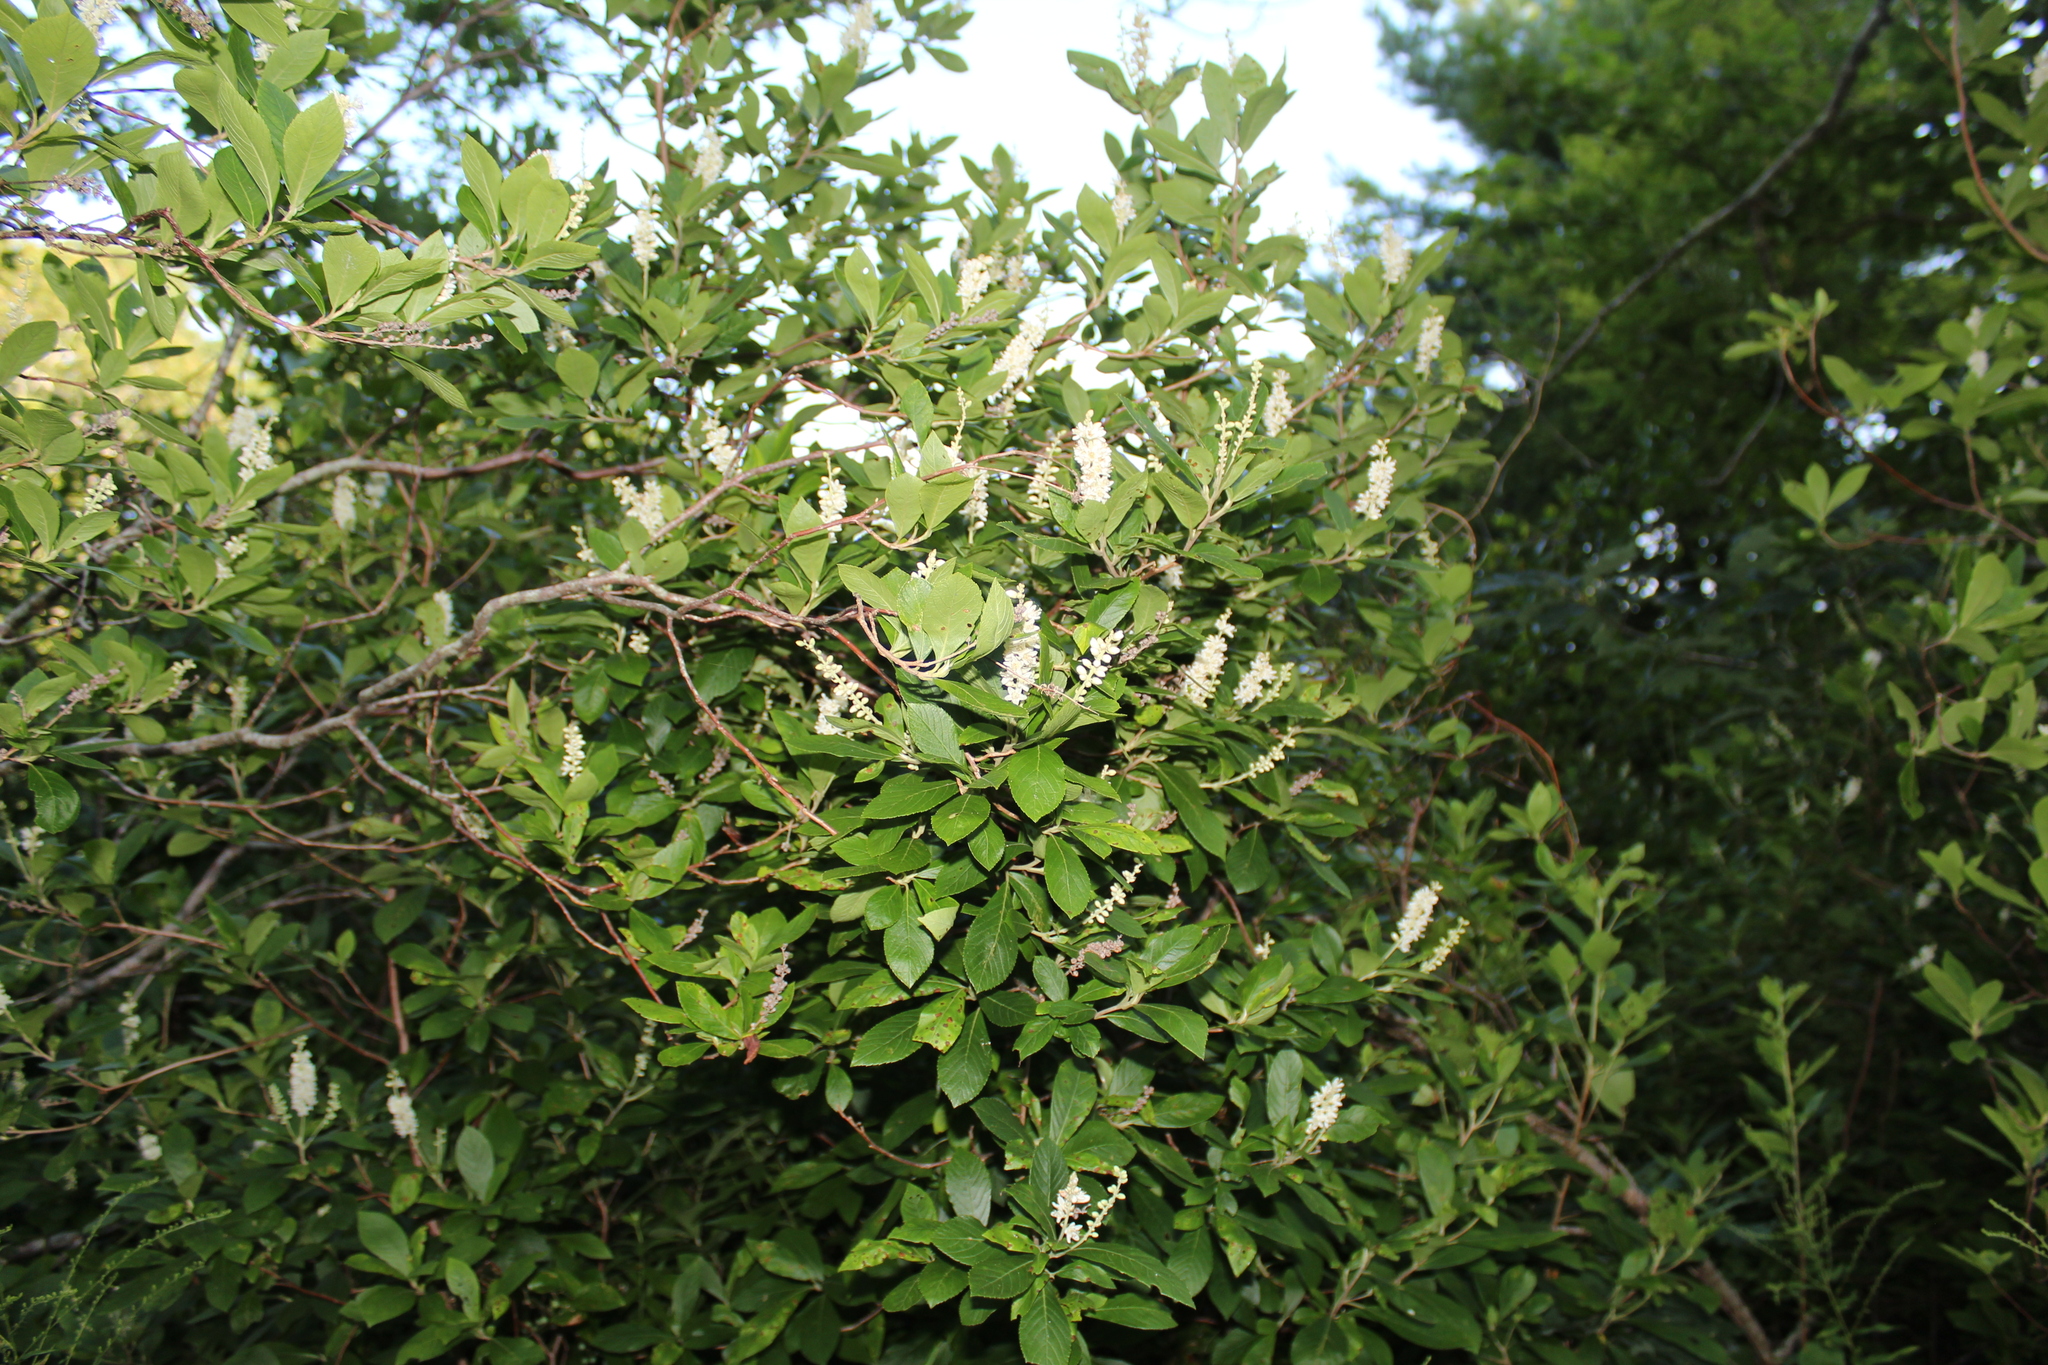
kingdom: Plantae
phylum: Tracheophyta
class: Magnoliopsida
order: Ericales
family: Clethraceae
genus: Clethra
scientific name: Clethra alnifolia
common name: Sweet pepperbush
